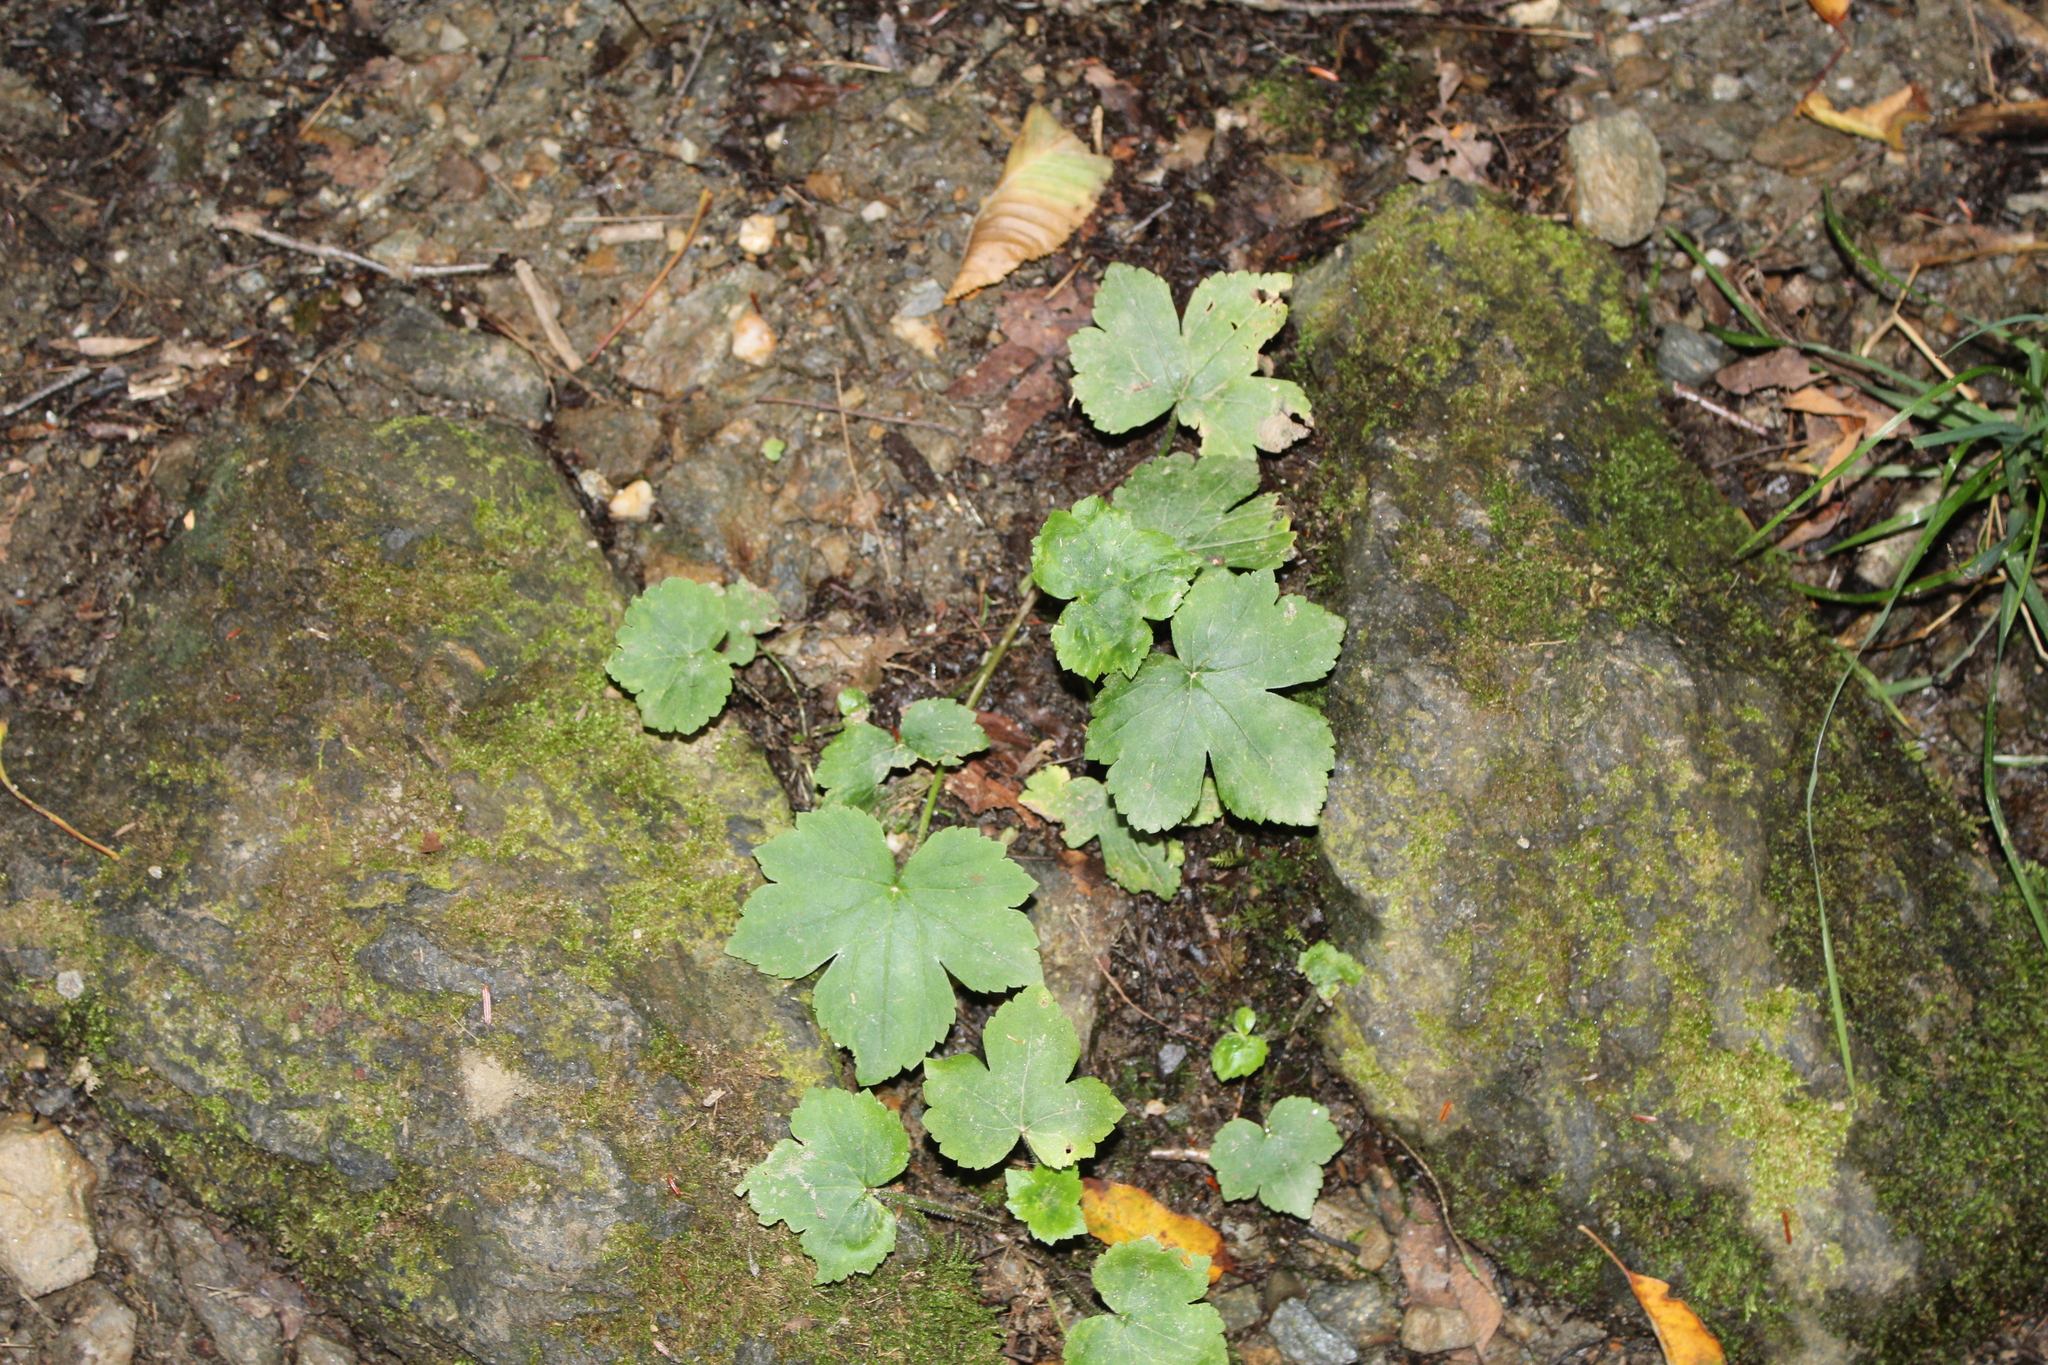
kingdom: Plantae
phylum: Tracheophyta
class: Magnoliopsida
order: Ranunculales
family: Ranunculaceae
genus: Ranunculus
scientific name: Ranunculus recurvatus
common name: Blisterwort
